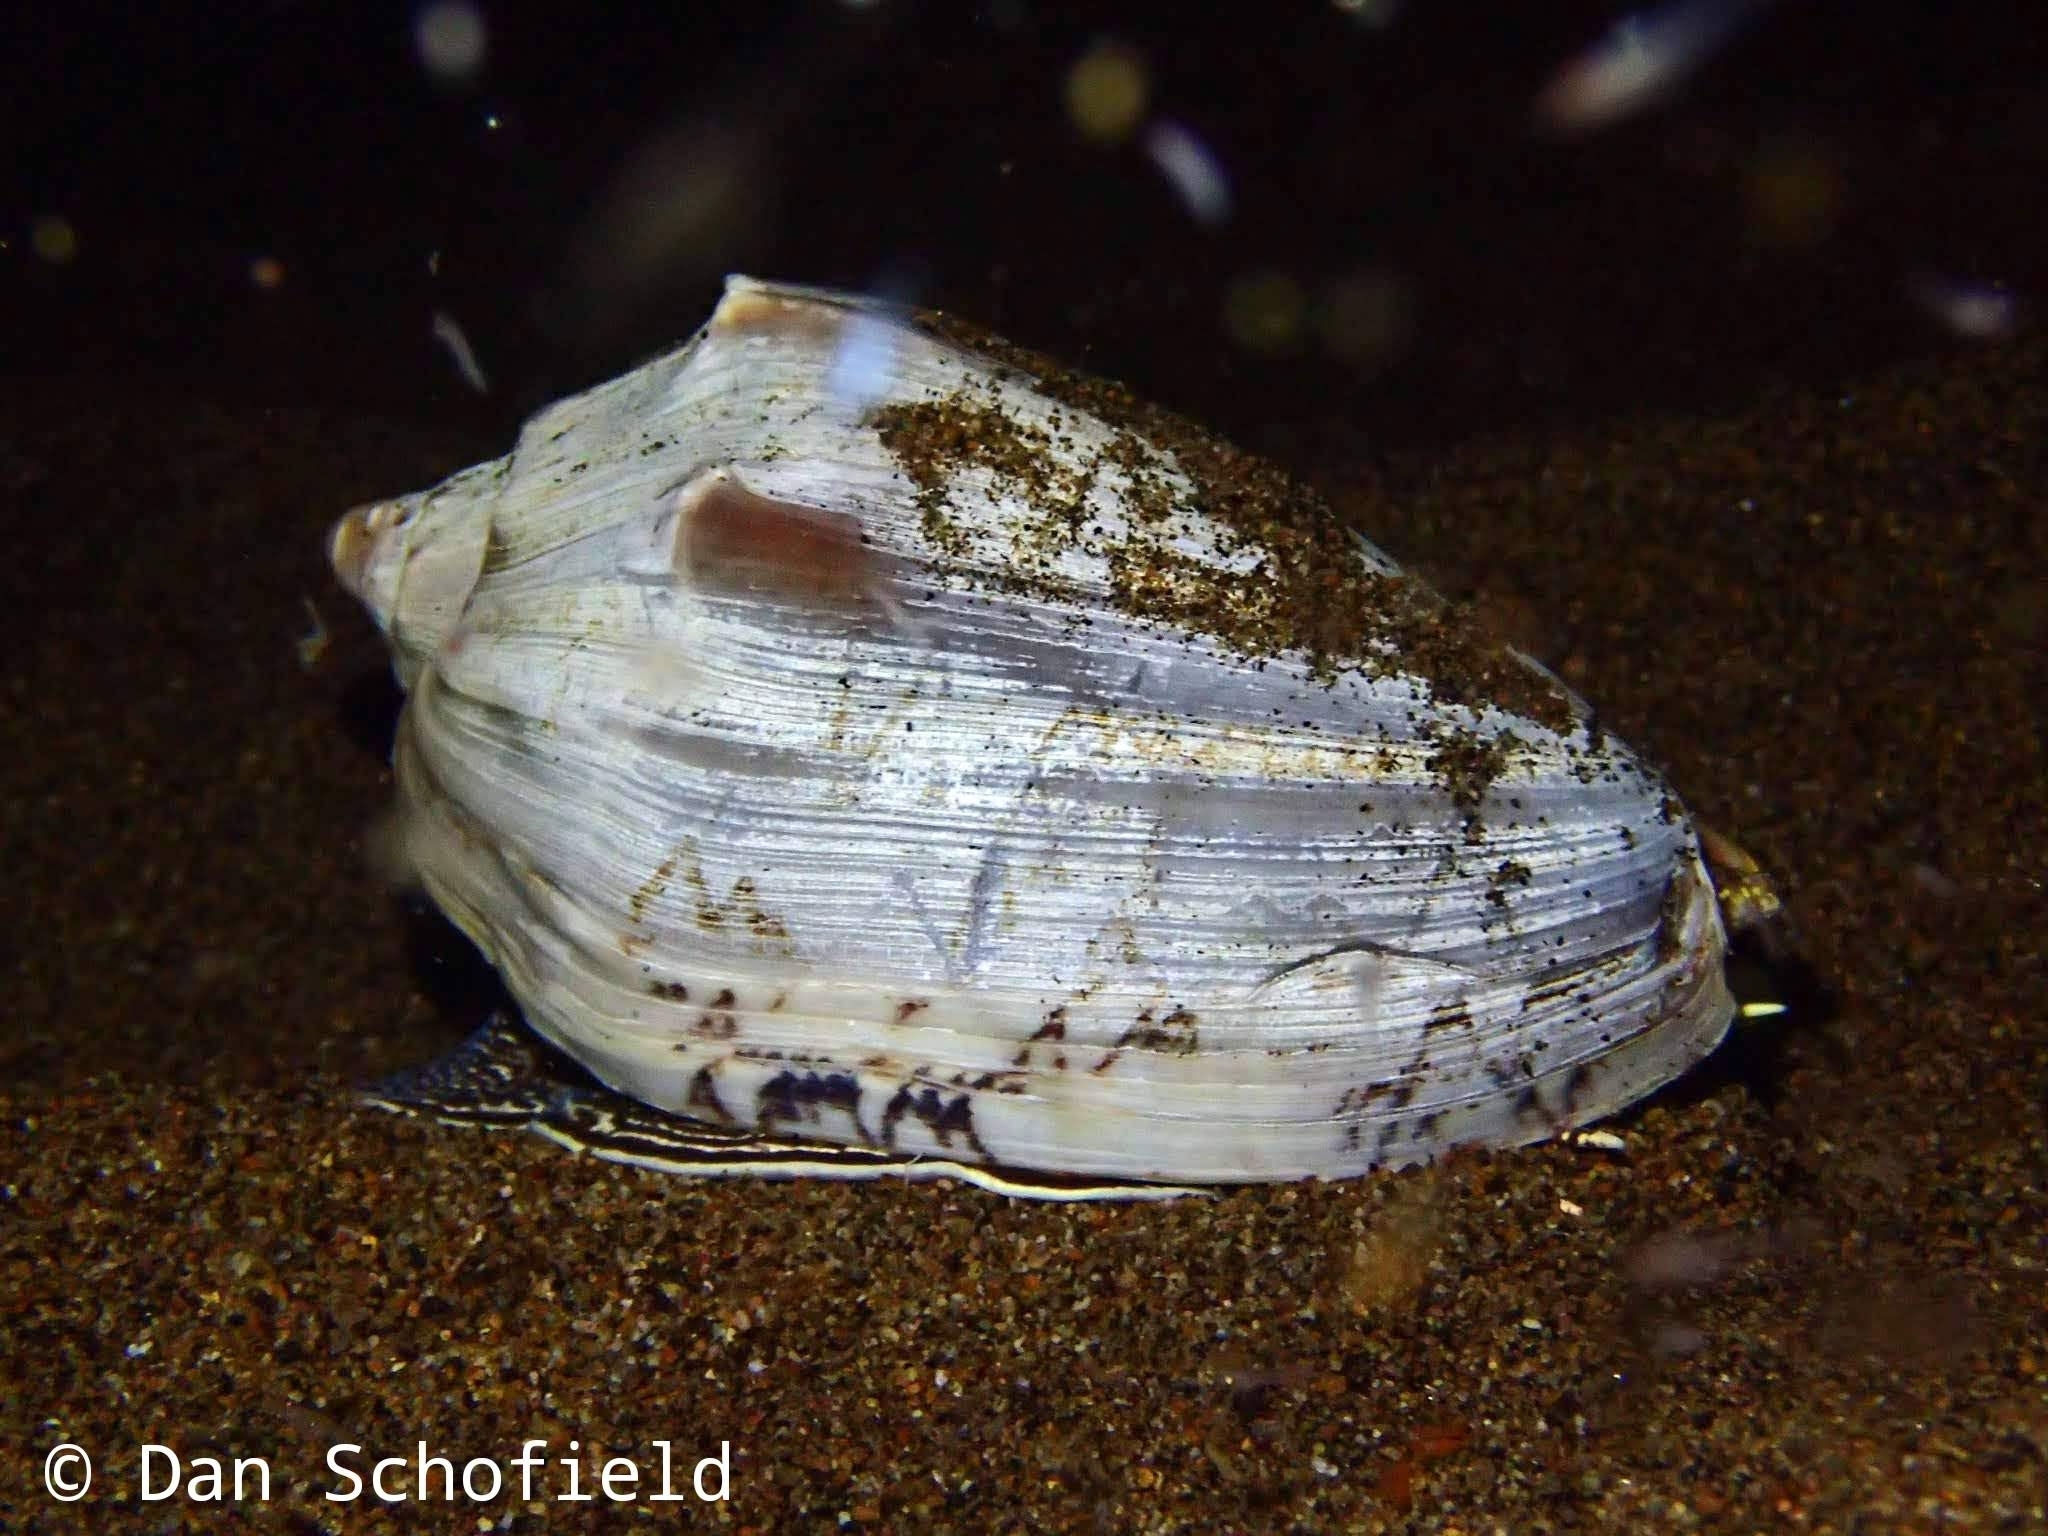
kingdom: Animalia
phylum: Mollusca
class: Gastropoda
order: Neogastropoda
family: Volutidae
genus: Cymbiola
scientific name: Cymbiola vespertilio
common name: Bat volute
